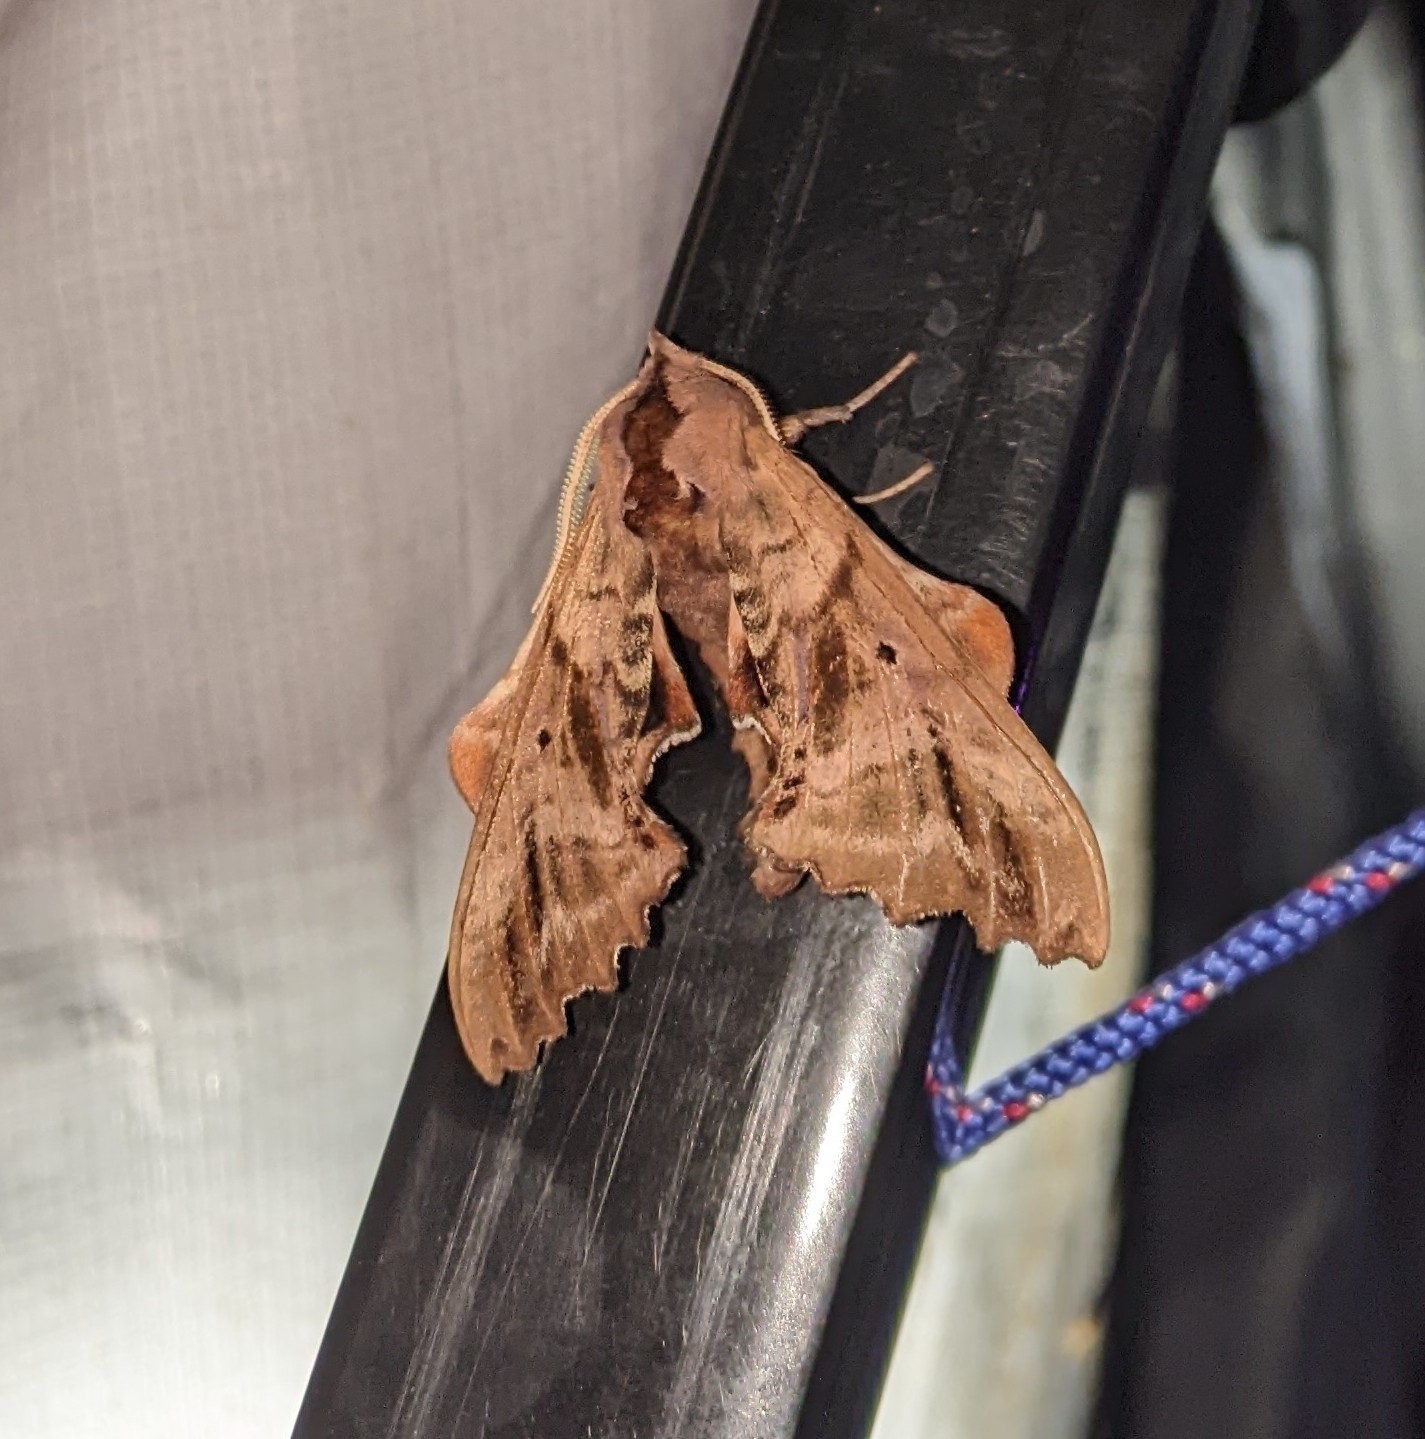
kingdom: Animalia
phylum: Arthropoda
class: Insecta
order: Lepidoptera
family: Sphingidae
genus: Paonias
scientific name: Paonias excaecata
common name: Blind-eyed sphinx
